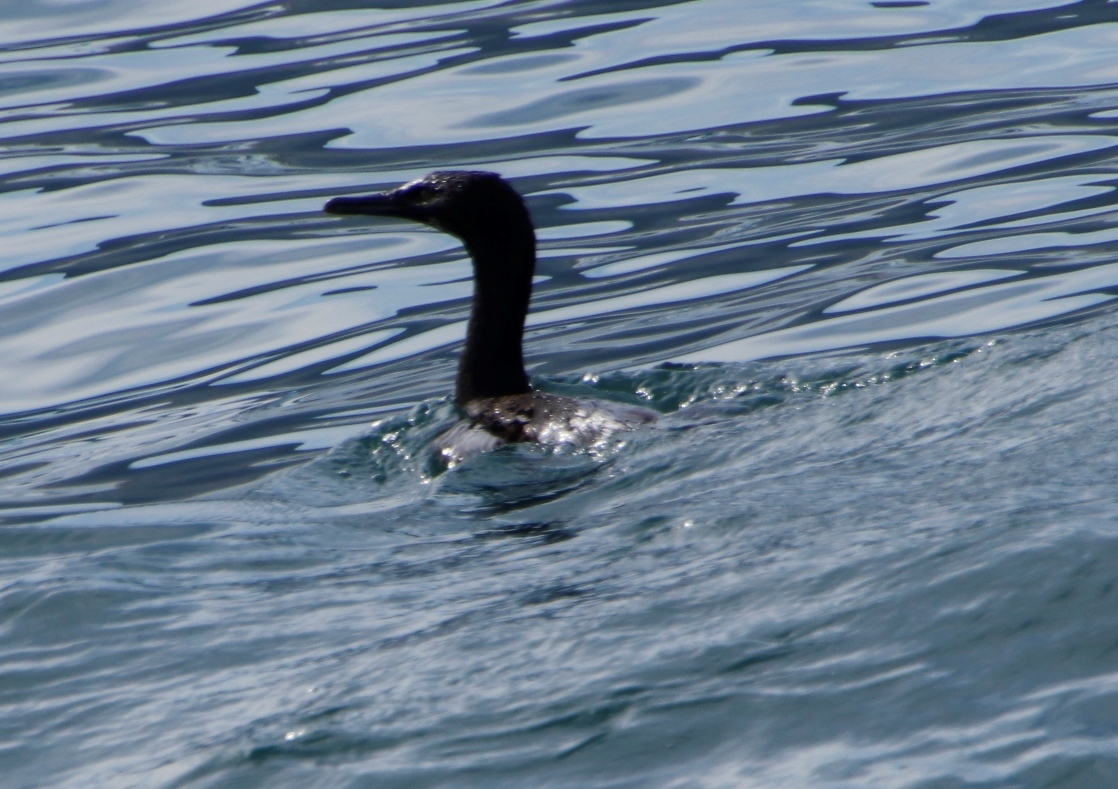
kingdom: Animalia
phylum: Chordata
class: Aves
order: Suliformes
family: Phalacrocoracidae
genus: Phalacrocorax
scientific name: Phalacrocorax neglectus
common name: Bank cormorant
